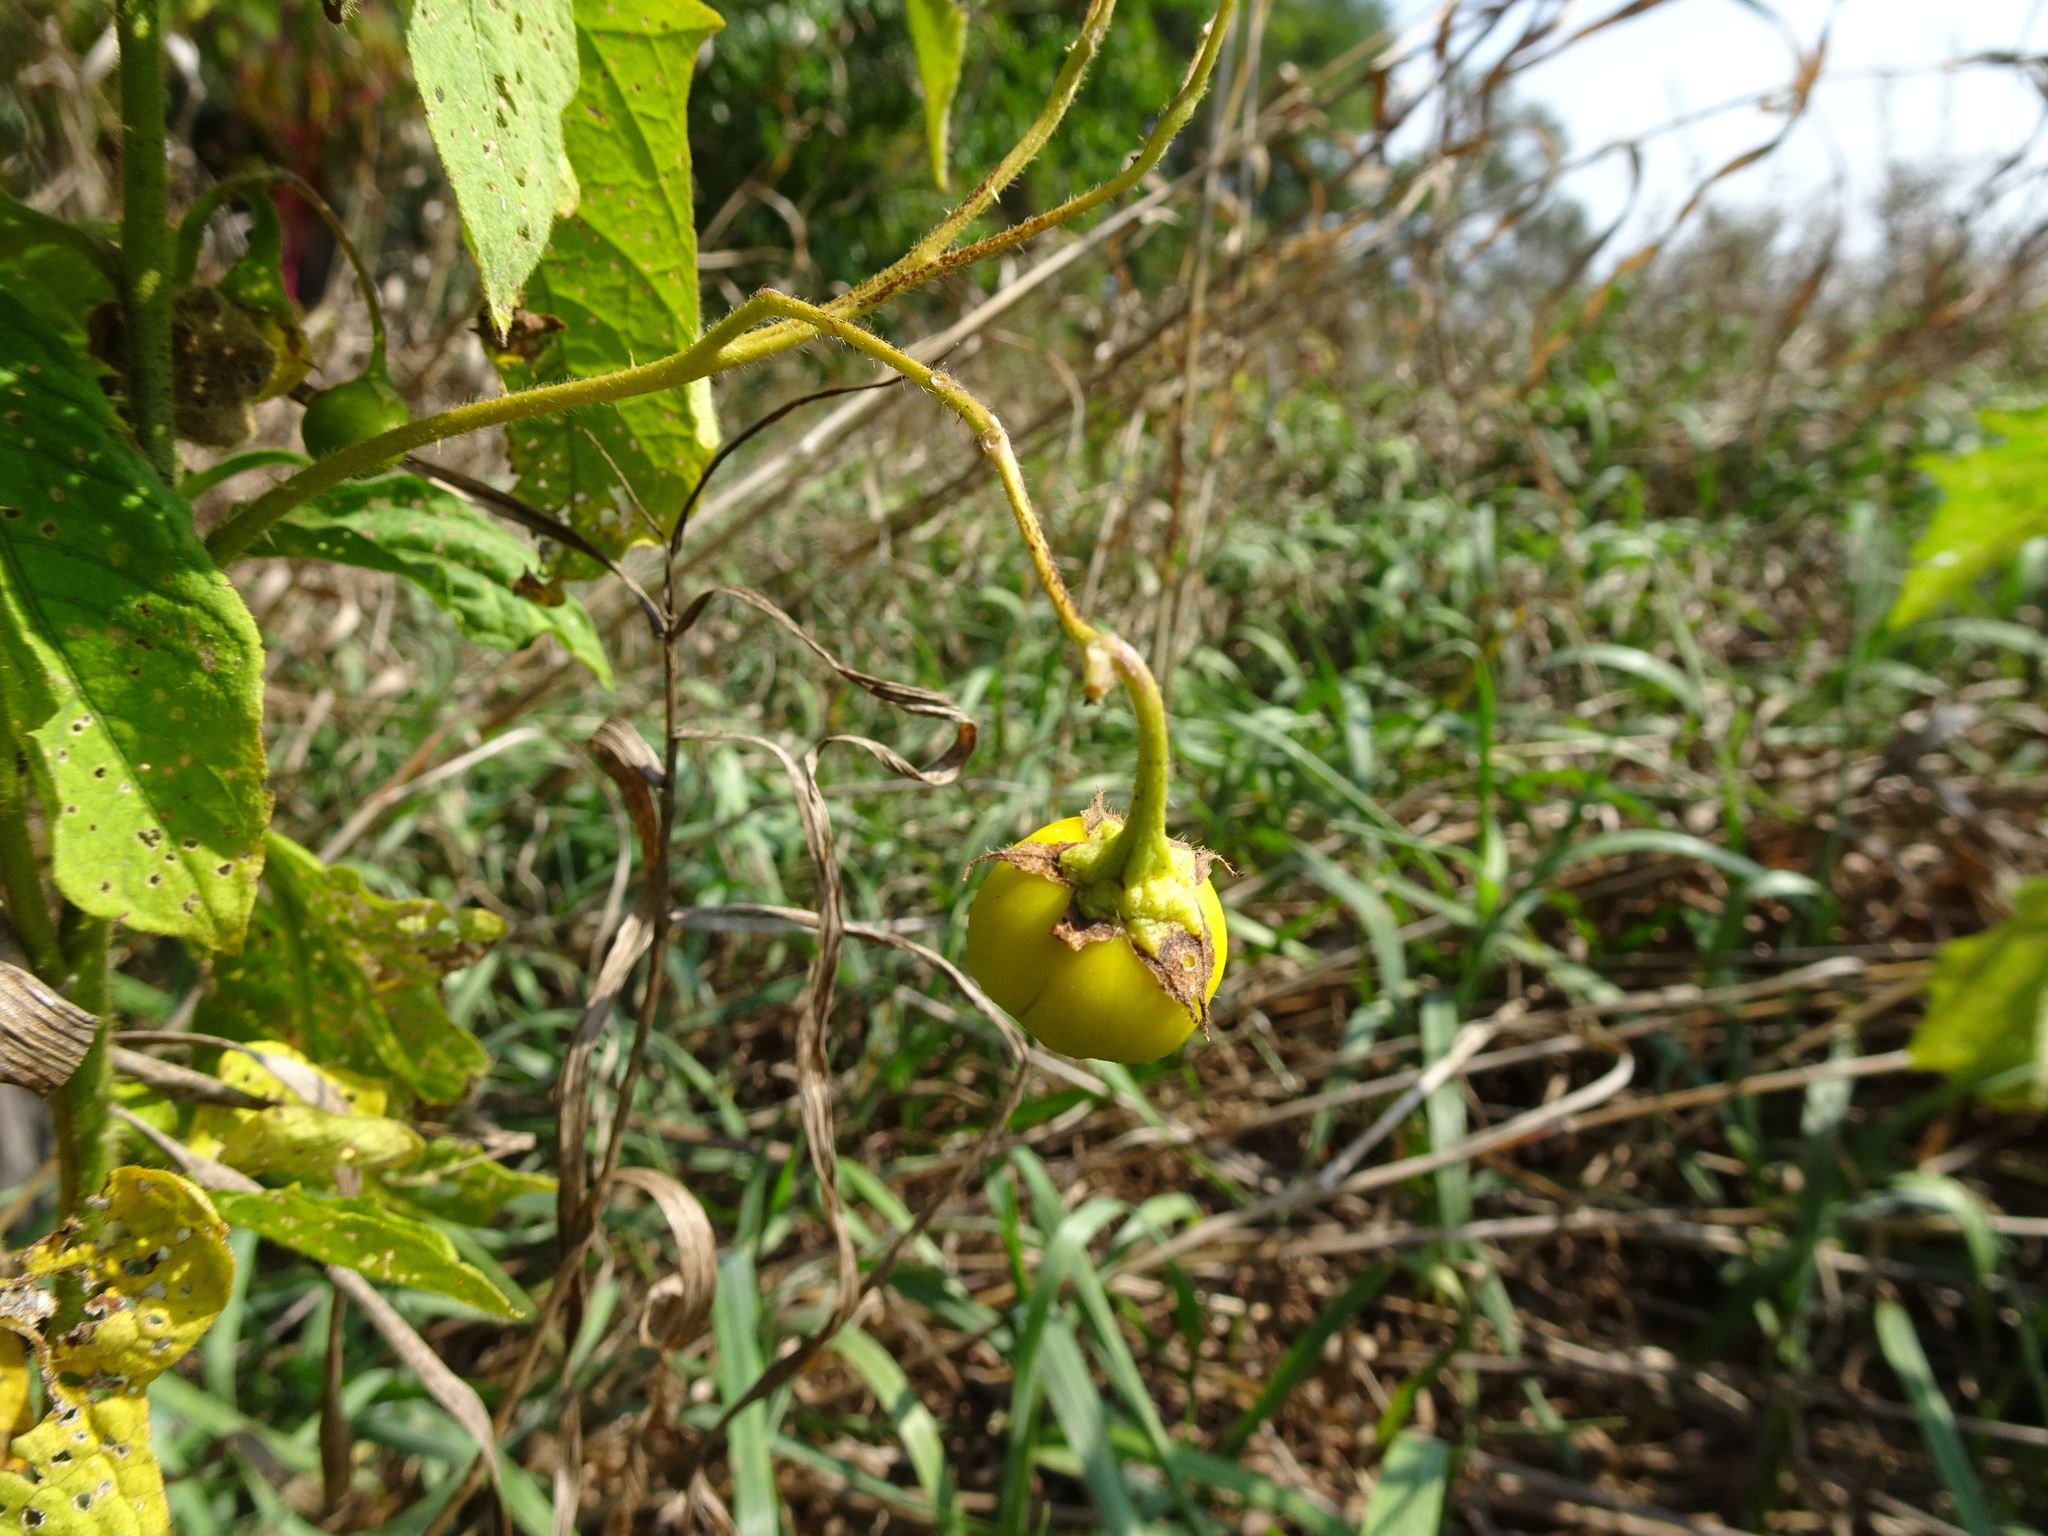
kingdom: Plantae
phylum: Tracheophyta
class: Magnoliopsida
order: Solanales
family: Solanaceae
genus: Solanum
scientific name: Solanum carolinense
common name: Horse-nettle
